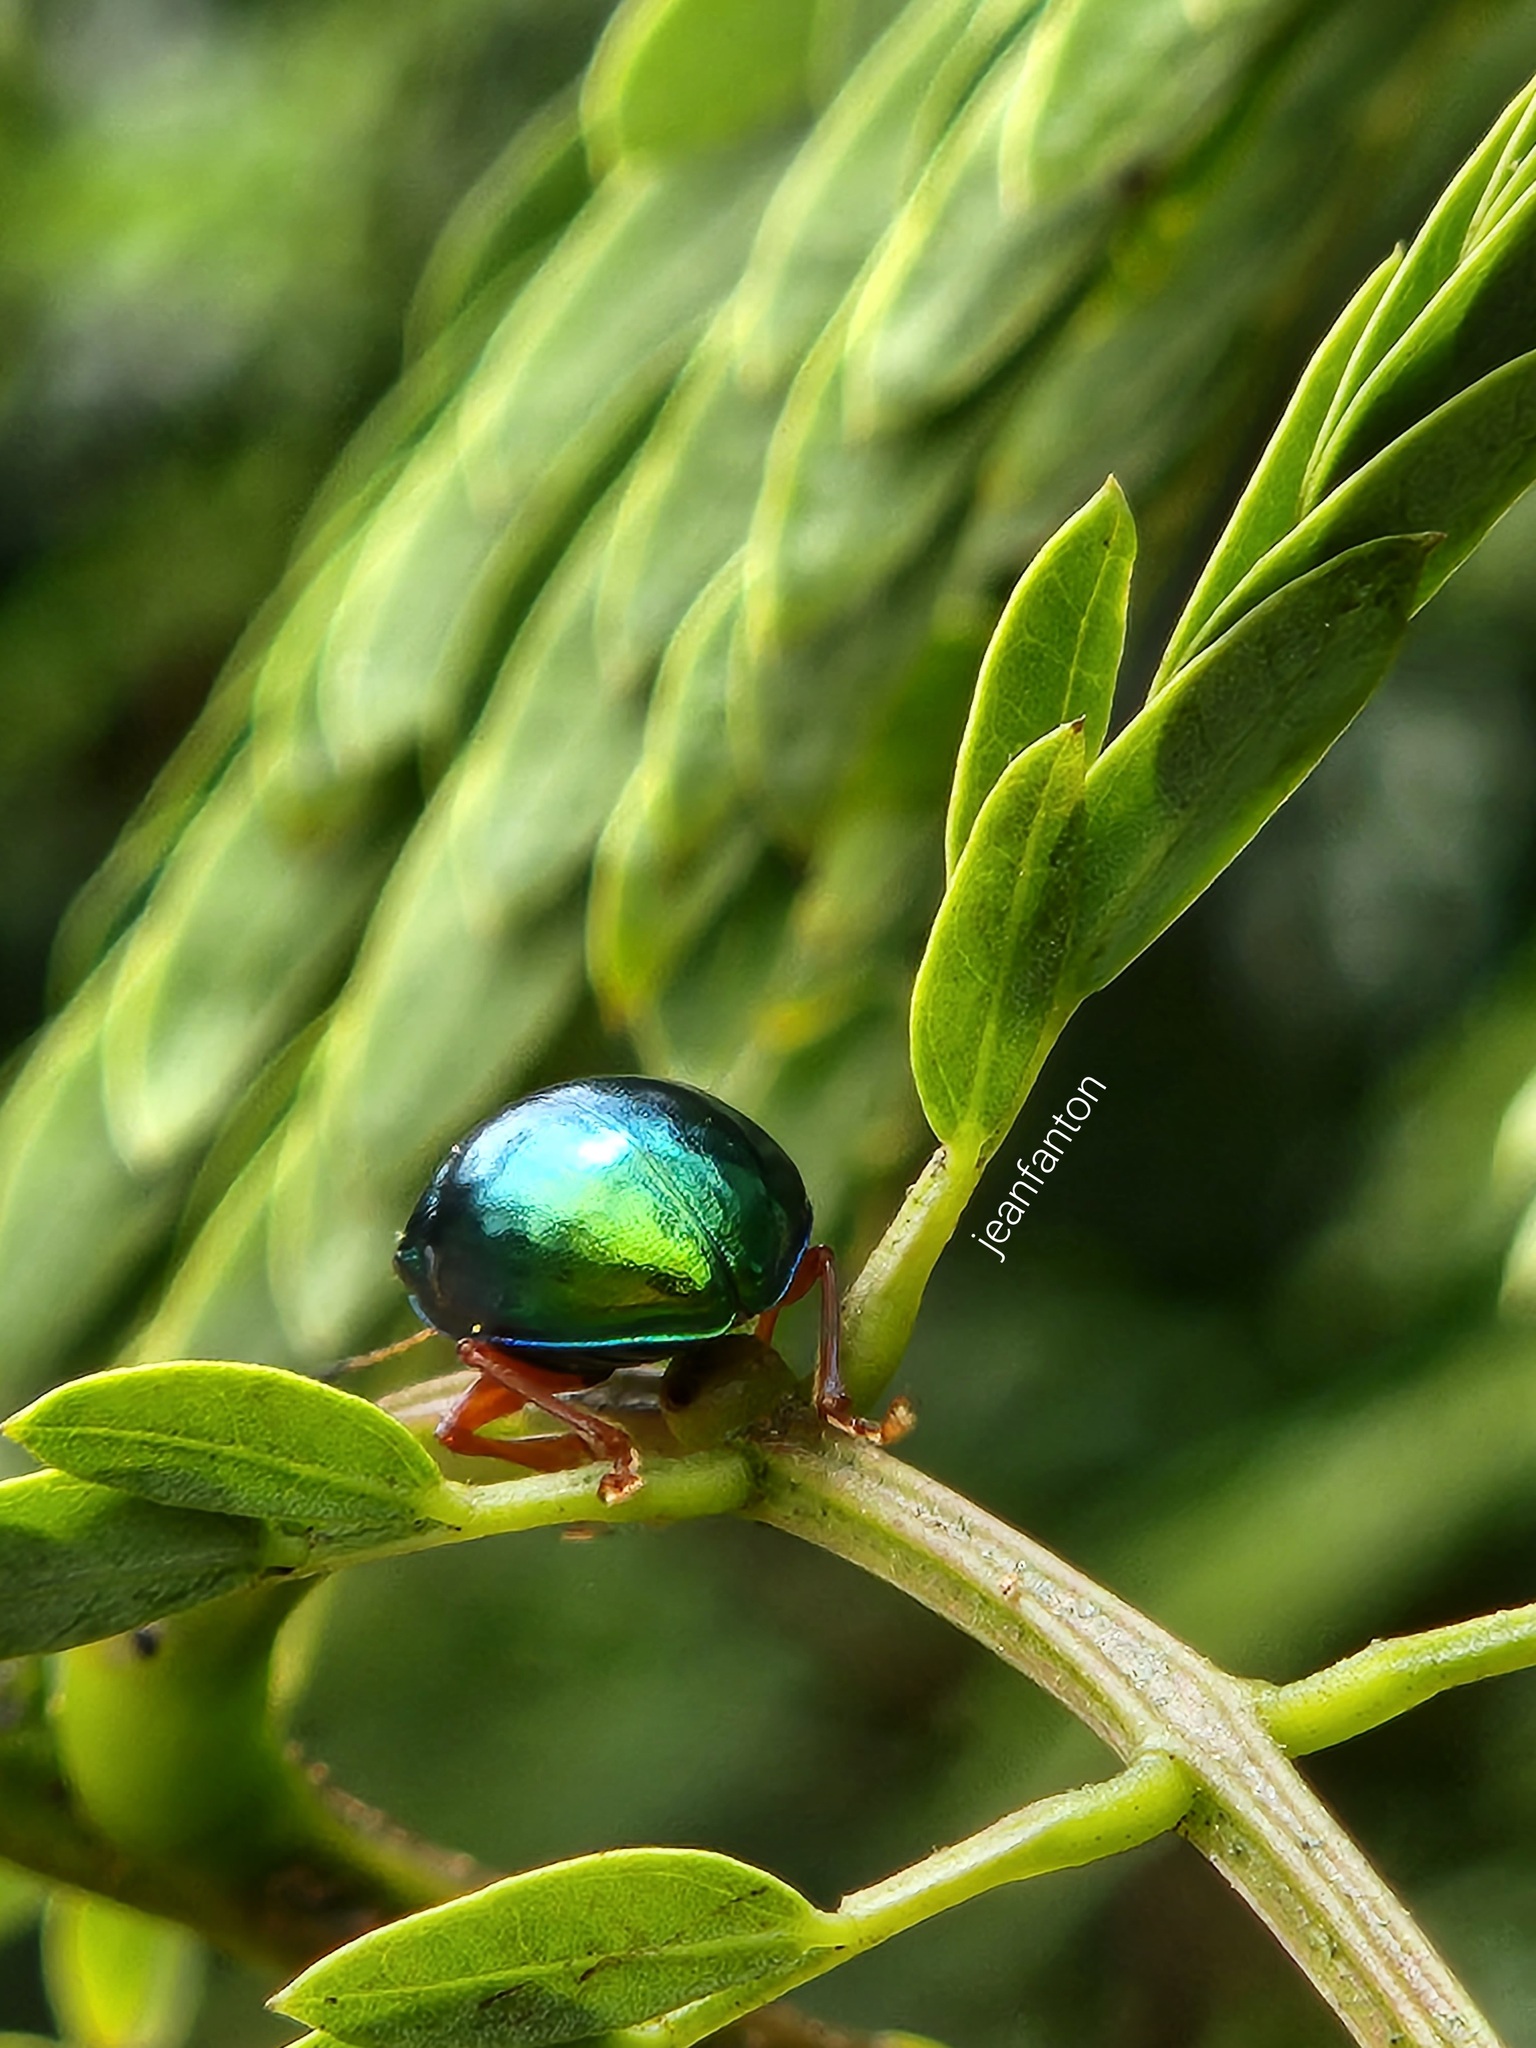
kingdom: Animalia
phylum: Arthropoda
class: Insecta
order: Coleoptera
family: Chrysomelidae
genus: Iphimeis
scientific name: Iphimeis
